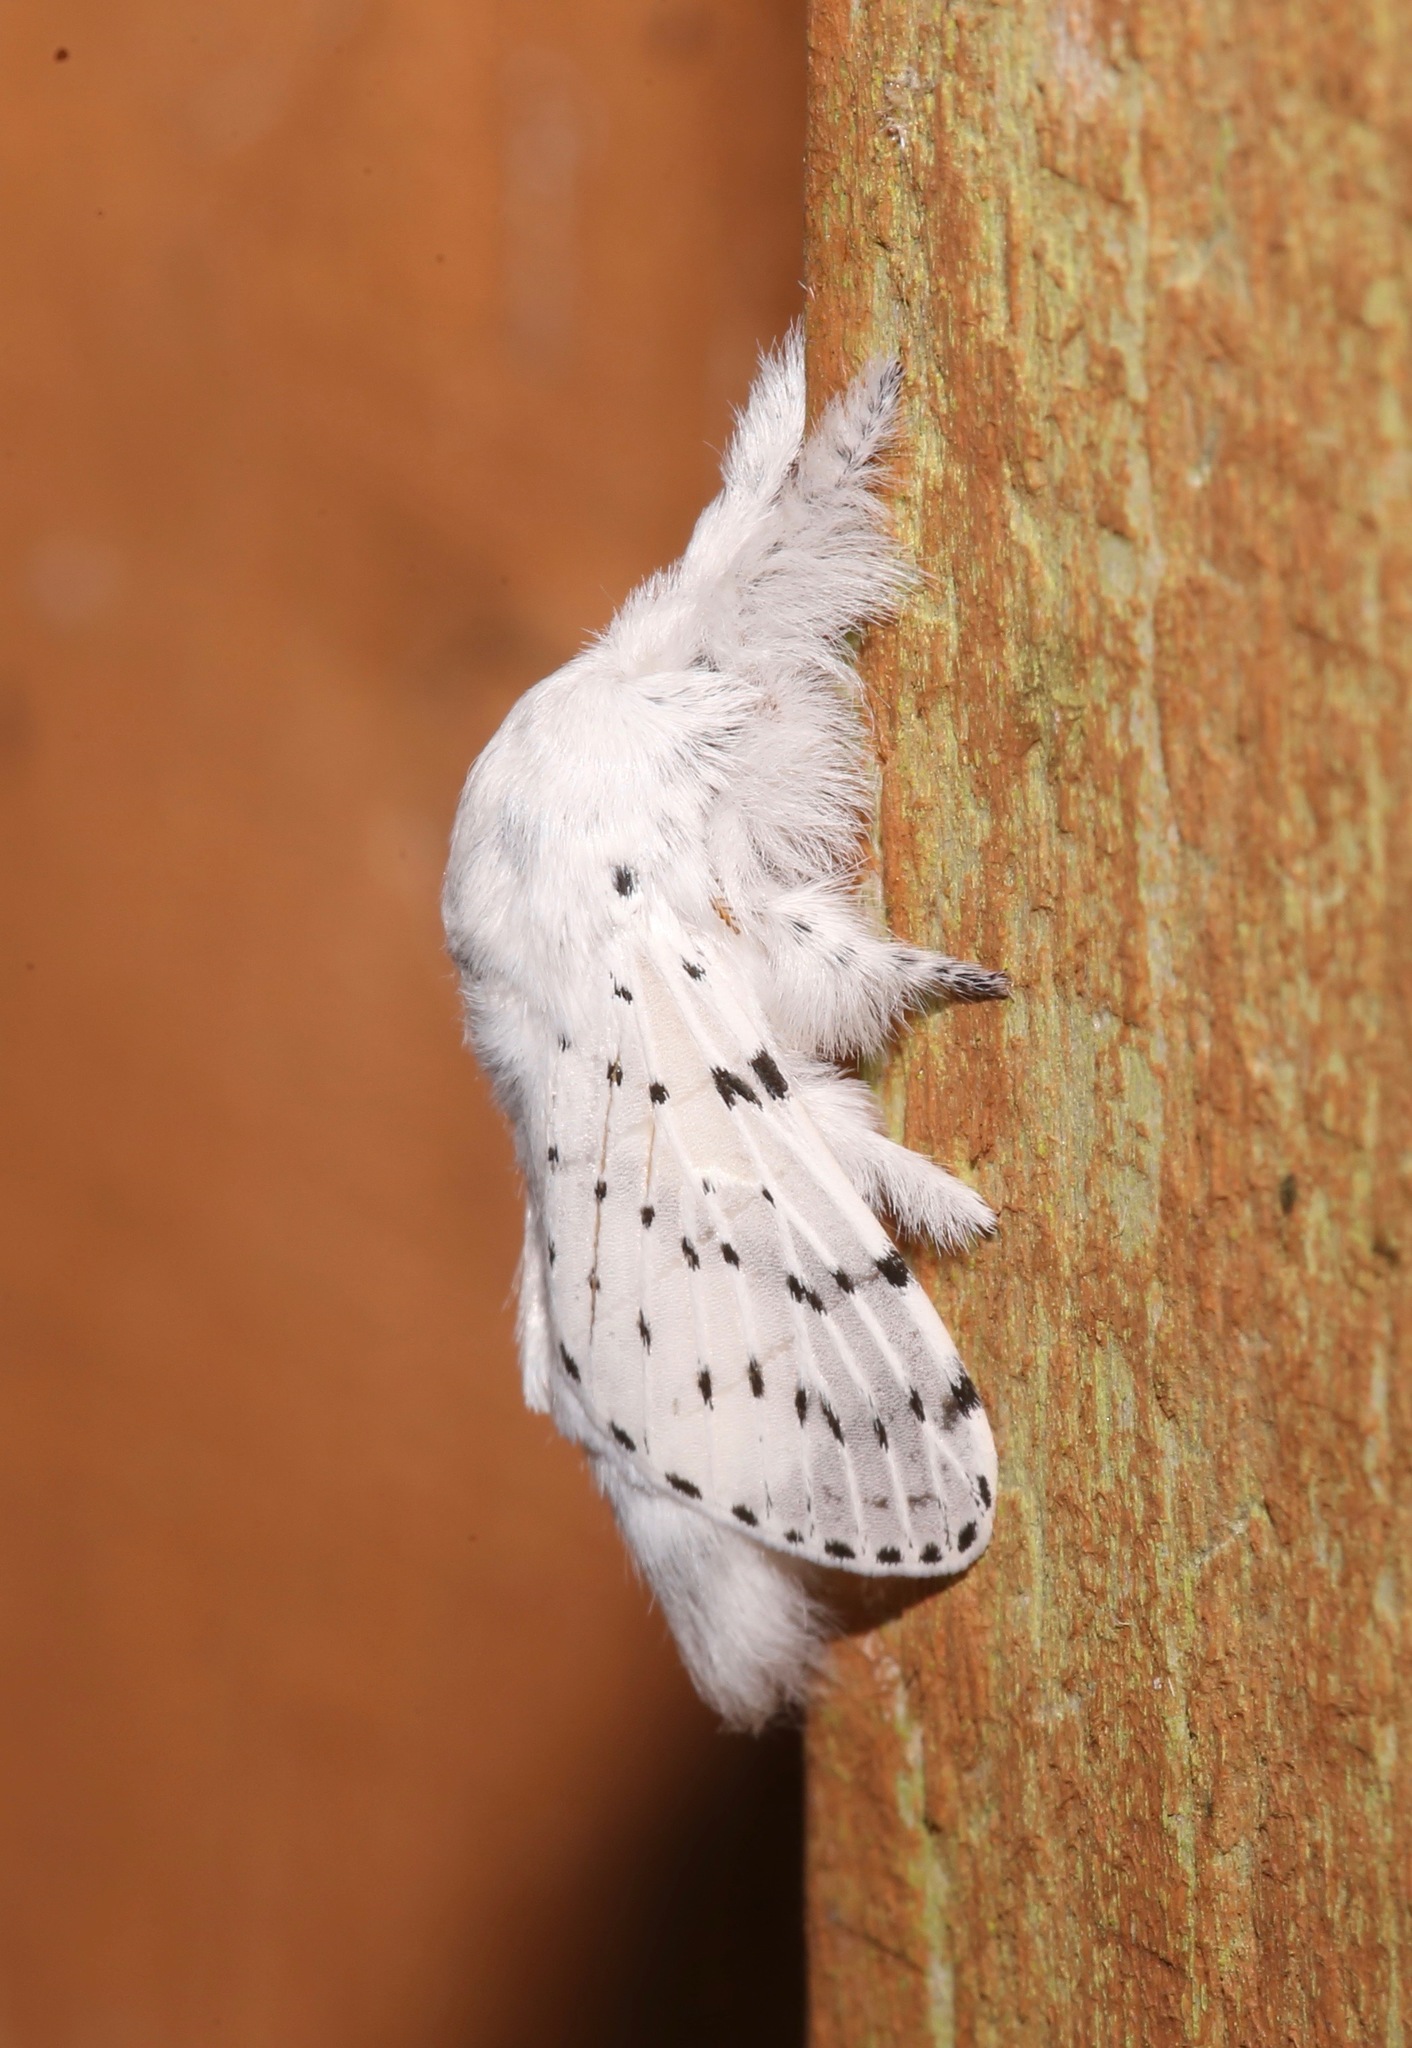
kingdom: Animalia
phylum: Arthropoda
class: Insecta
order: Lepidoptera
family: Lasiocampidae
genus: Artace
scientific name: Artace cribrarius
